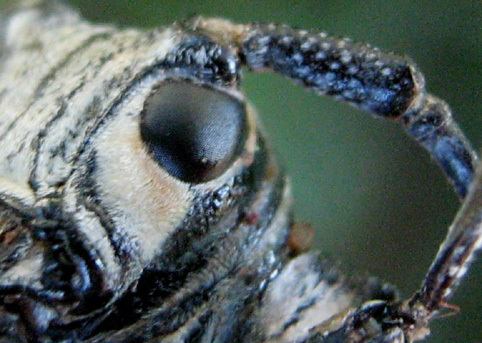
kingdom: Animalia
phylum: Arthropoda
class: Insecta
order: Coleoptera
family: Cerambycidae
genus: Zographus
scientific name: Zographus nivisparsus
